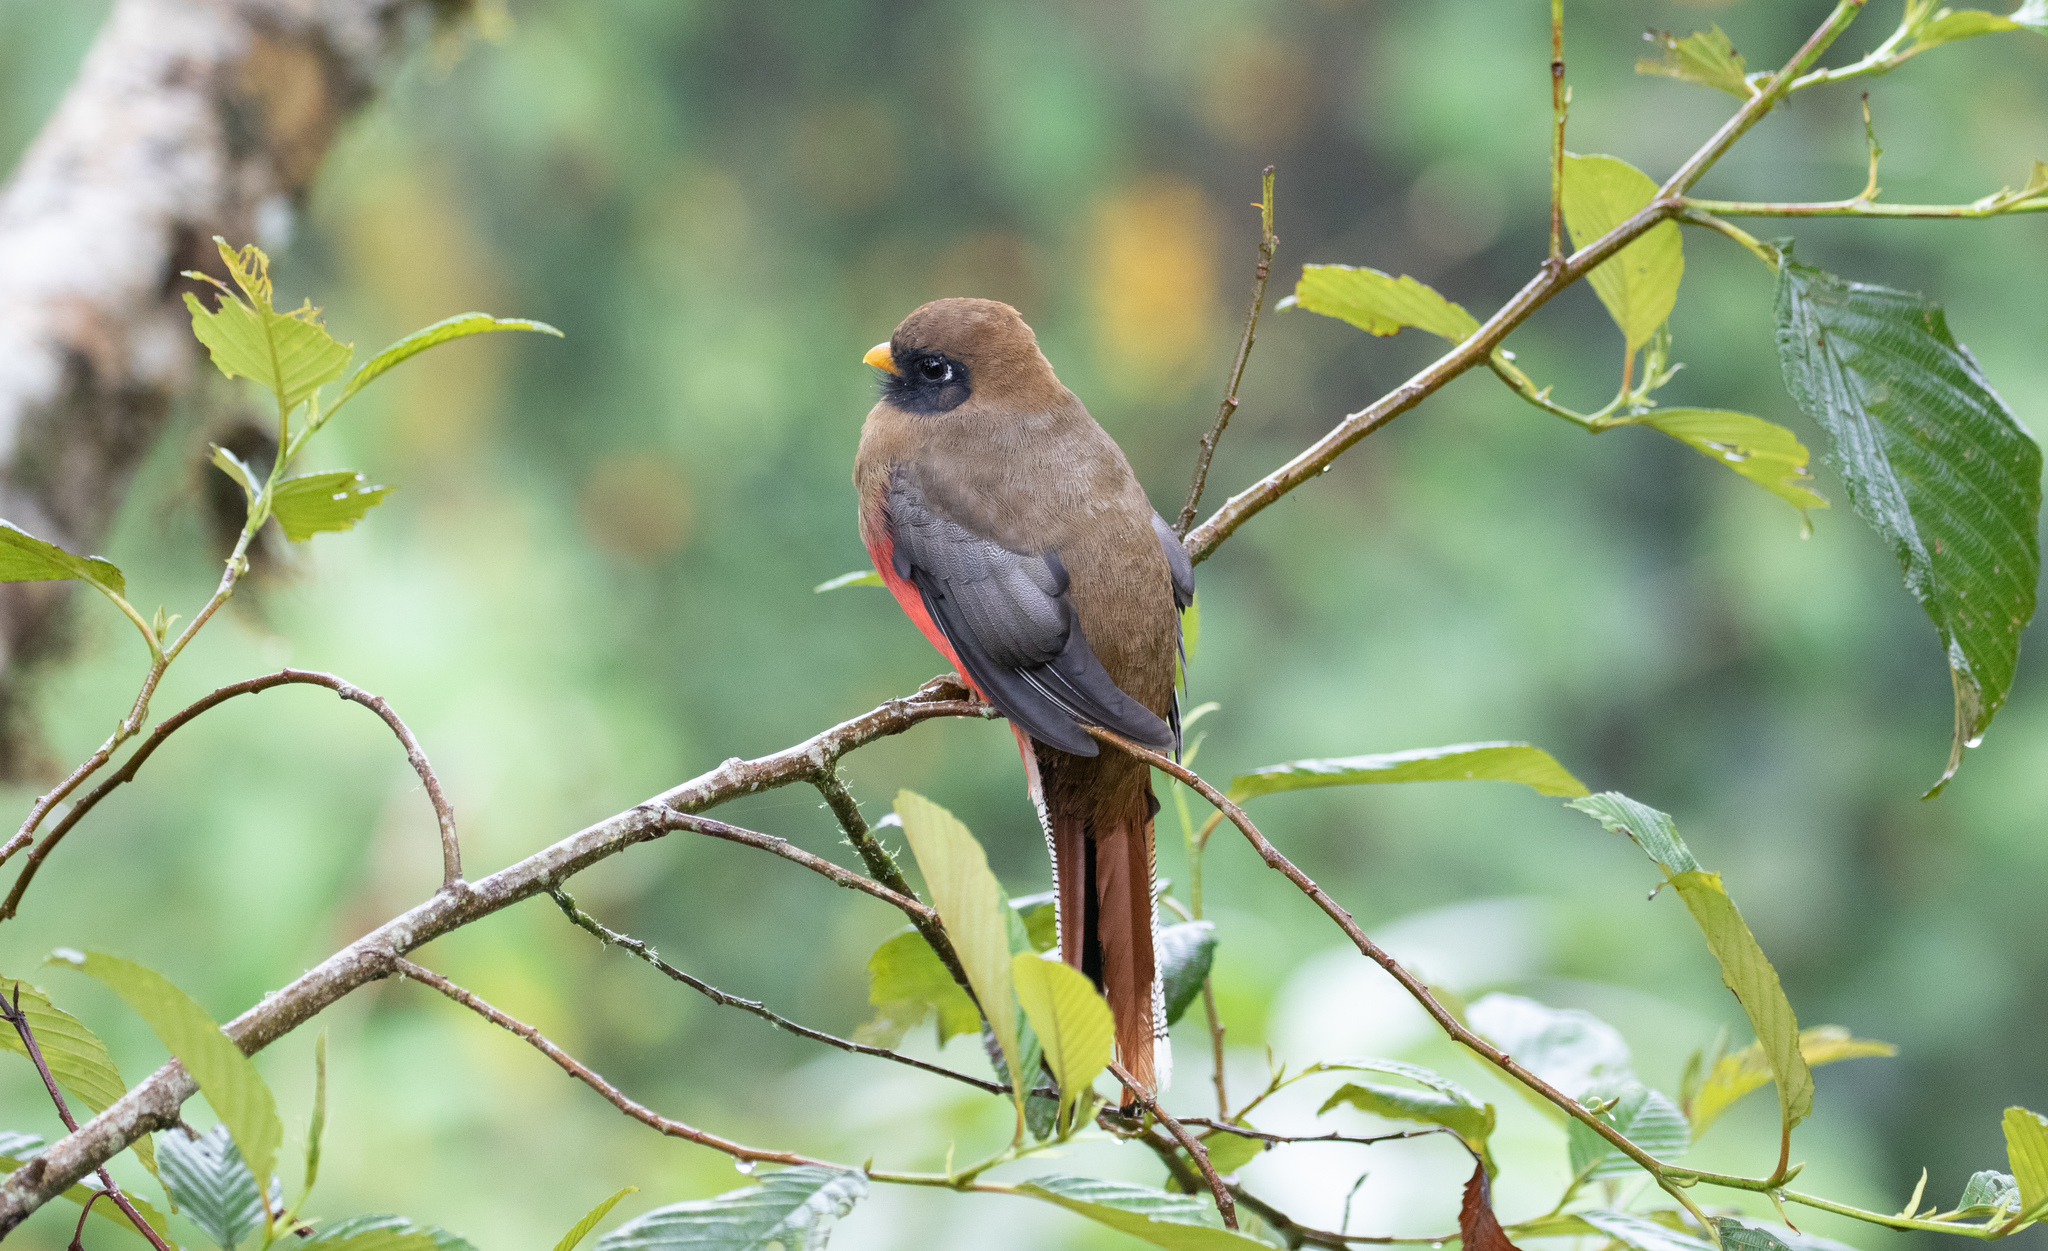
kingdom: Animalia
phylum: Chordata
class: Aves
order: Trogoniformes
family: Trogonidae
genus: Trogon
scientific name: Trogon personatus
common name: Masked trogon
